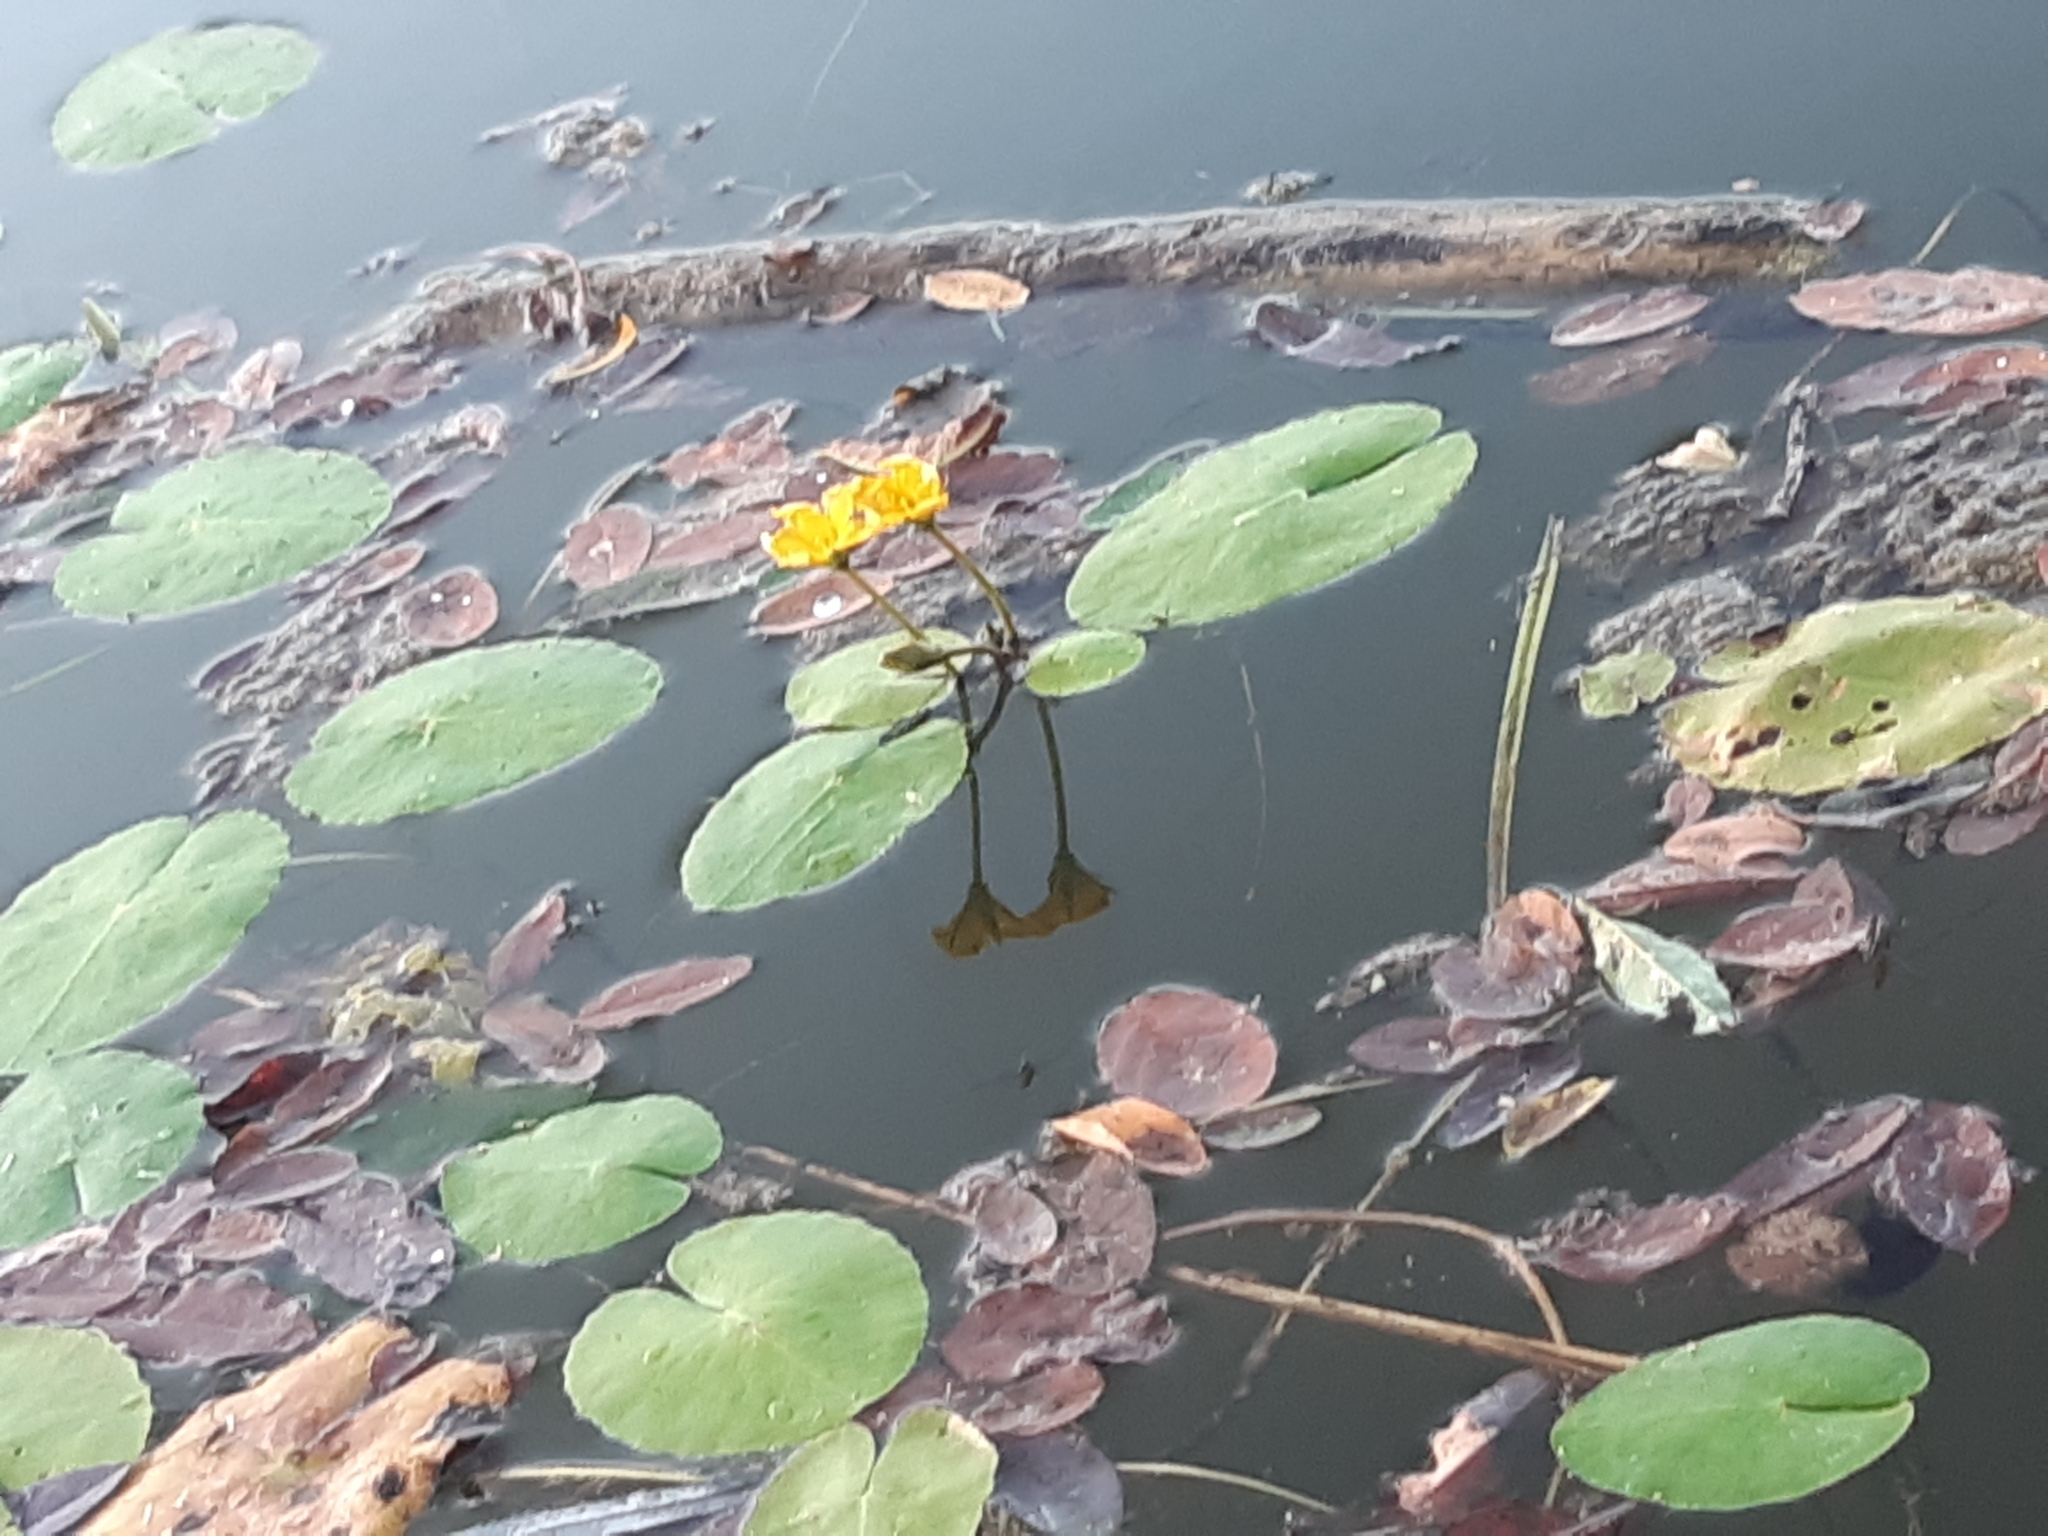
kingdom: Plantae
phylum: Tracheophyta
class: Magnoliopsida
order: Asterales
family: Menyanthaceae
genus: Nymphoides
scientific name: Nymphoides peltata
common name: Fringed water-lily
